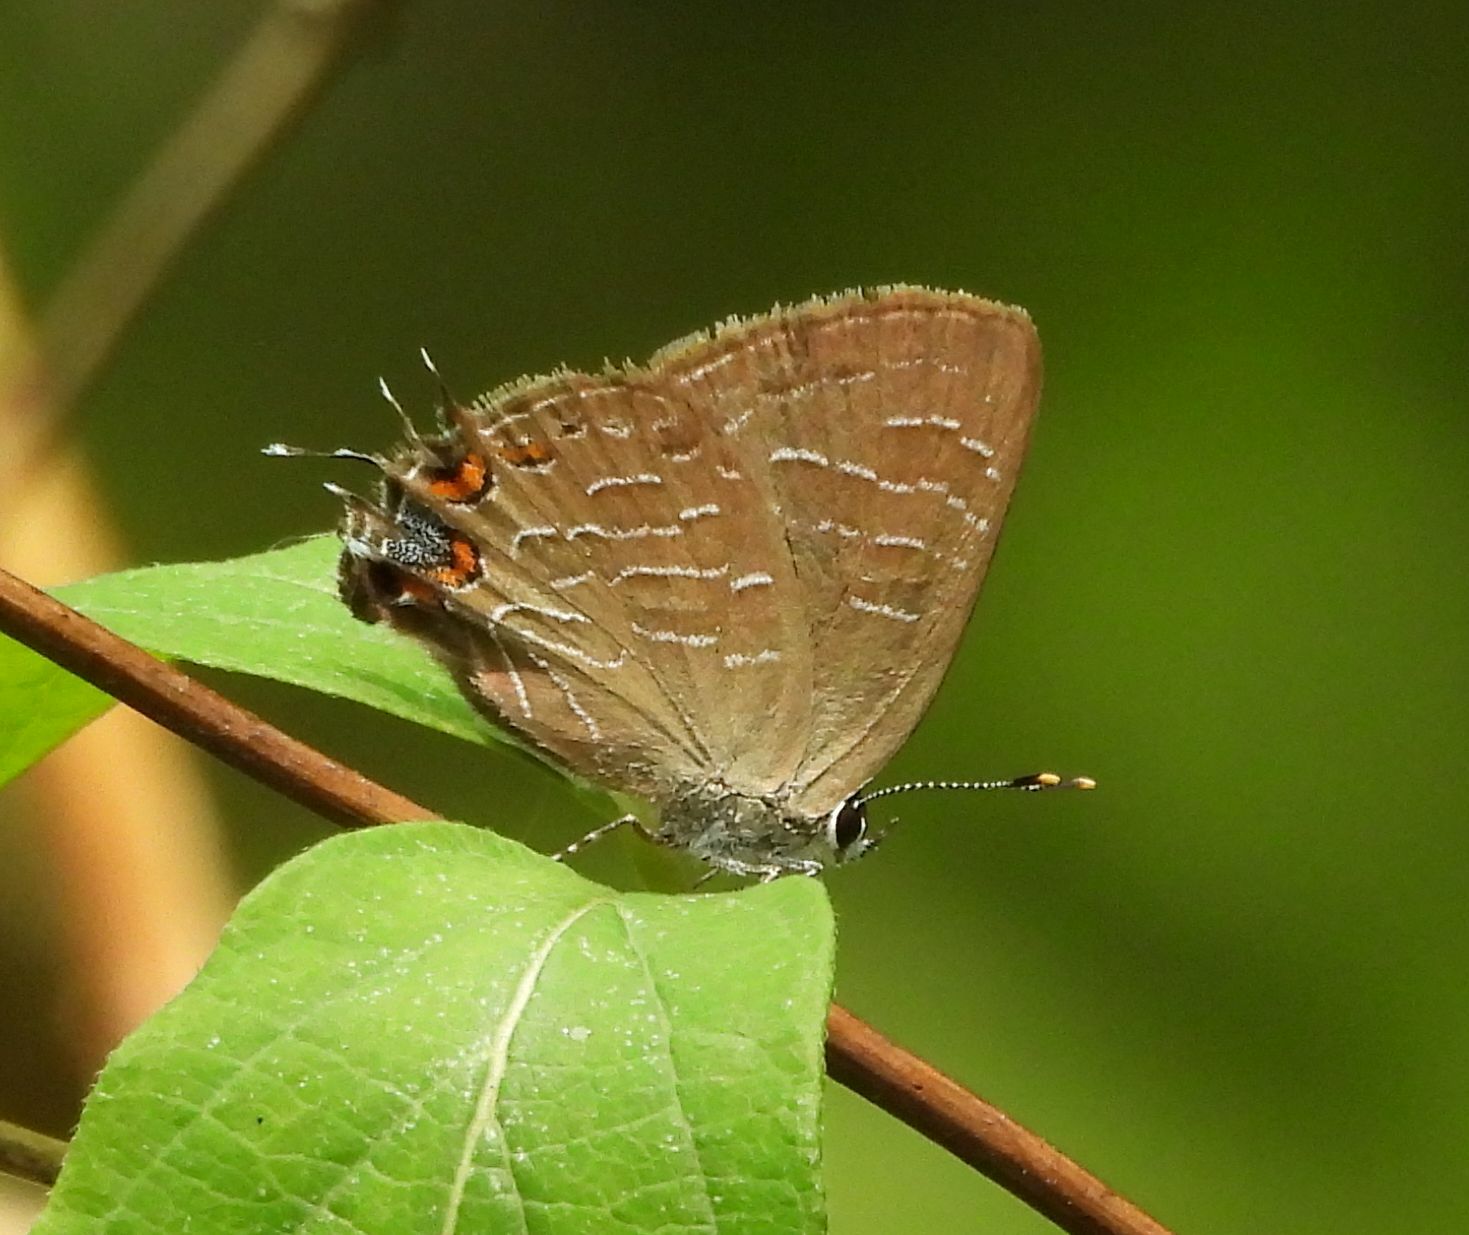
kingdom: Animalia
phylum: Arthropoda
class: Insecta
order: Lepidoptera
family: Lycaenidae
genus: Satyrium
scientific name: Satyrium liparops
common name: Striped hairstreak
